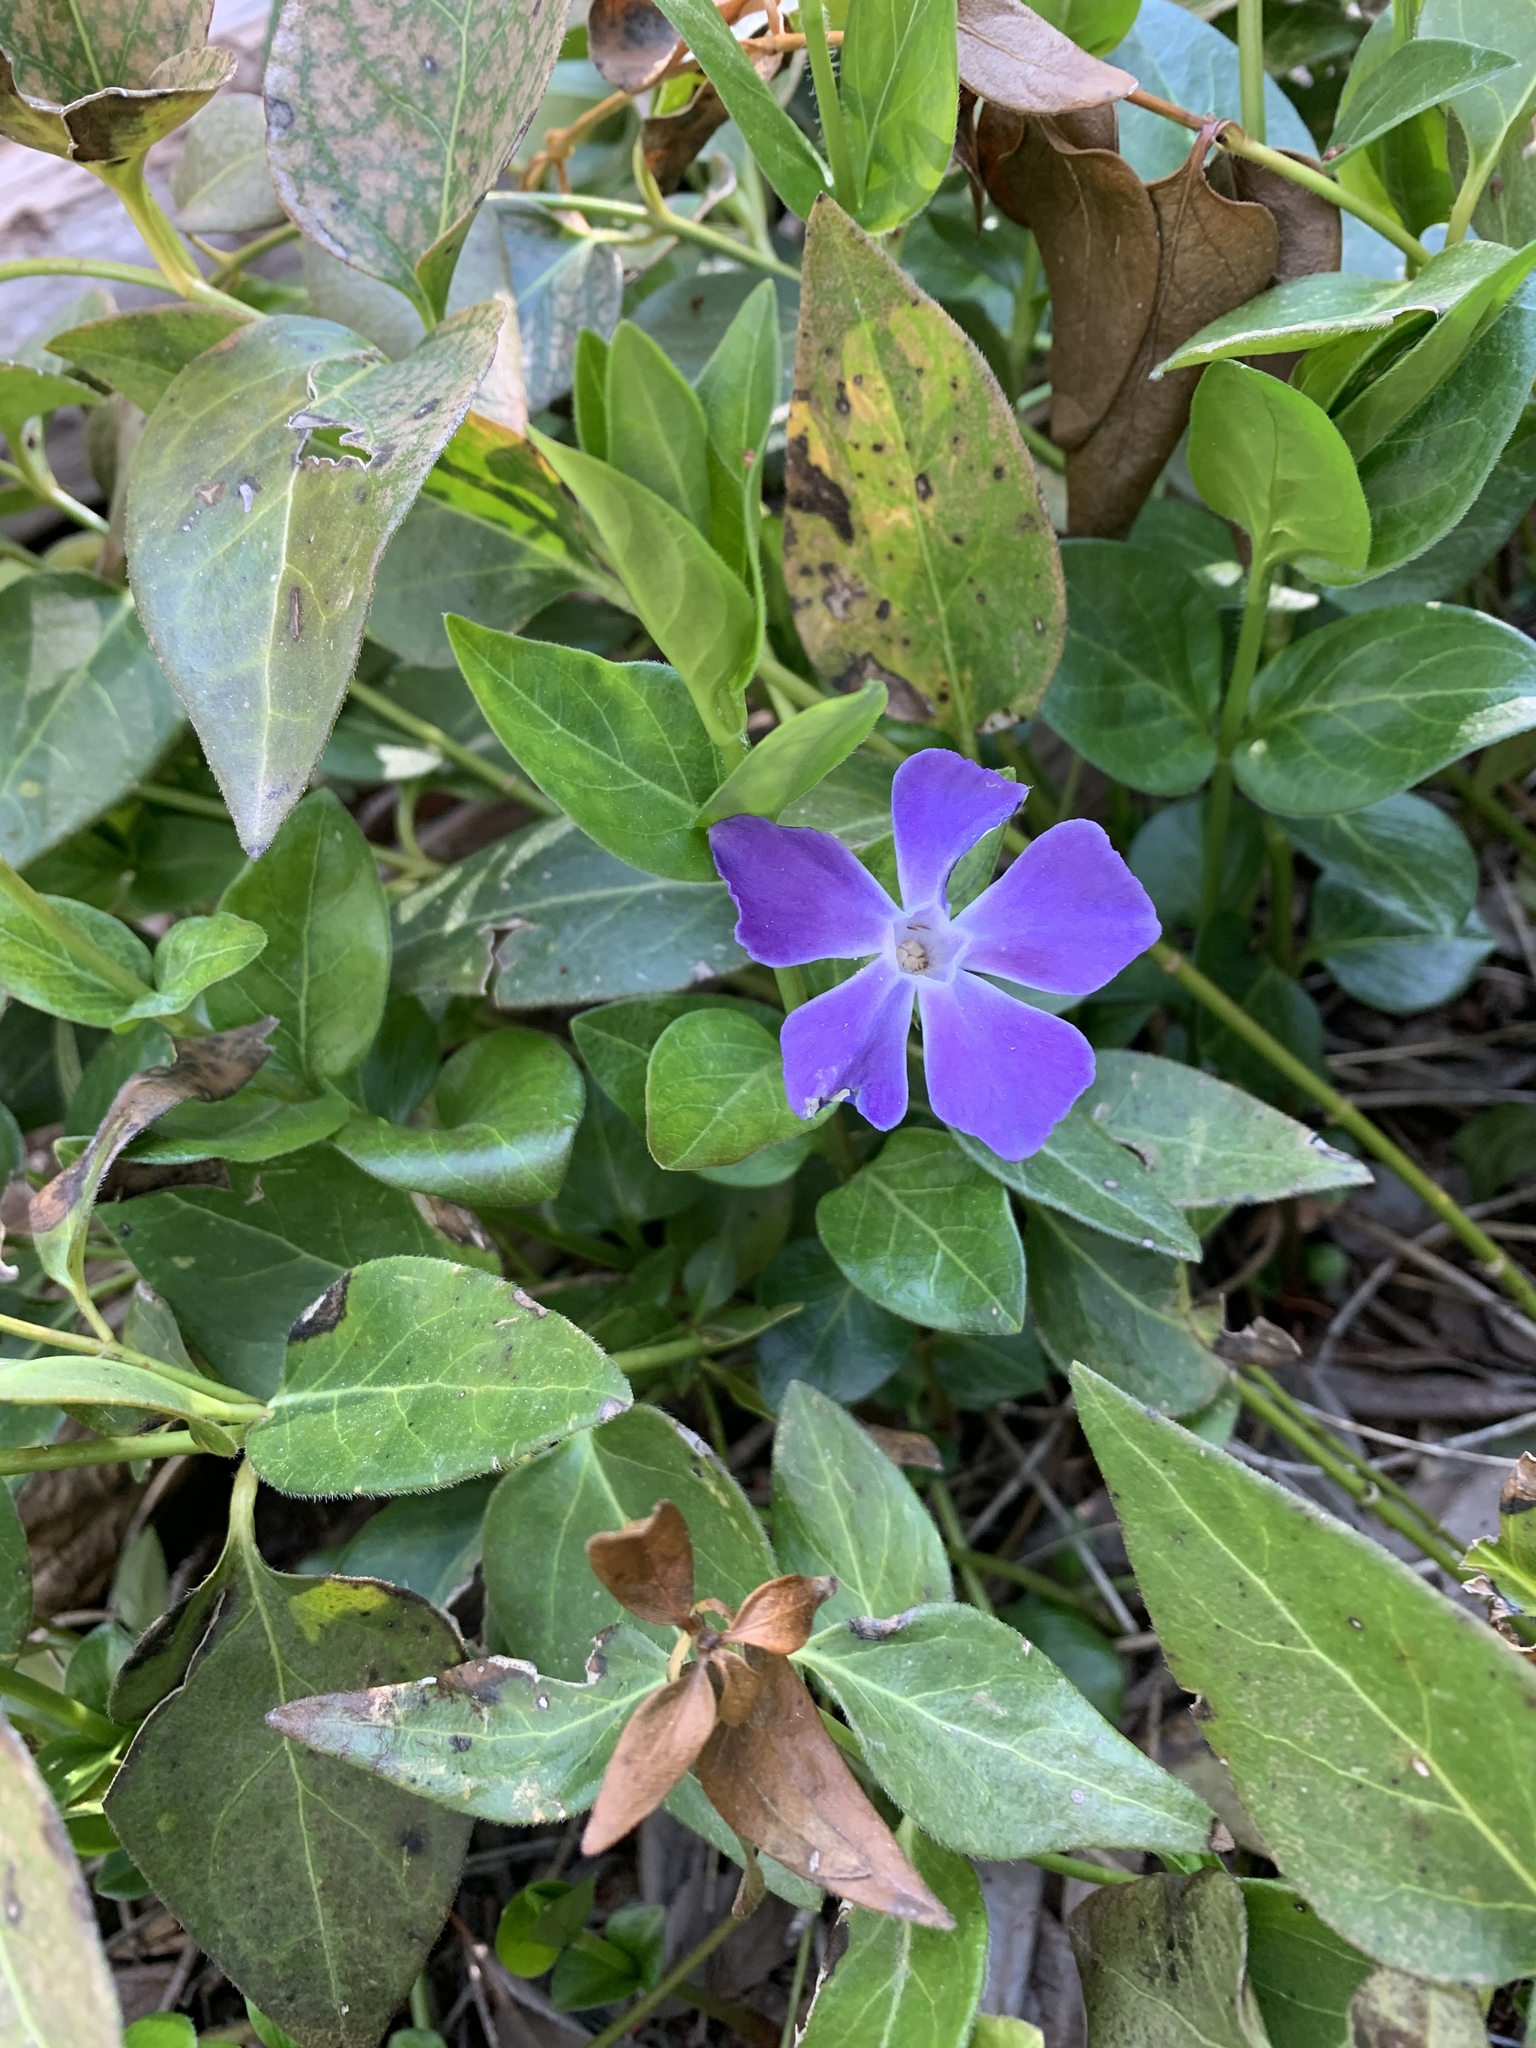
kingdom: Plantae
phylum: Tracheophyta
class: Magnoliopsida
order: Gentianales
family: Apocynaceae
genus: Vinca
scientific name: Vinca major
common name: Greater periwinkle
